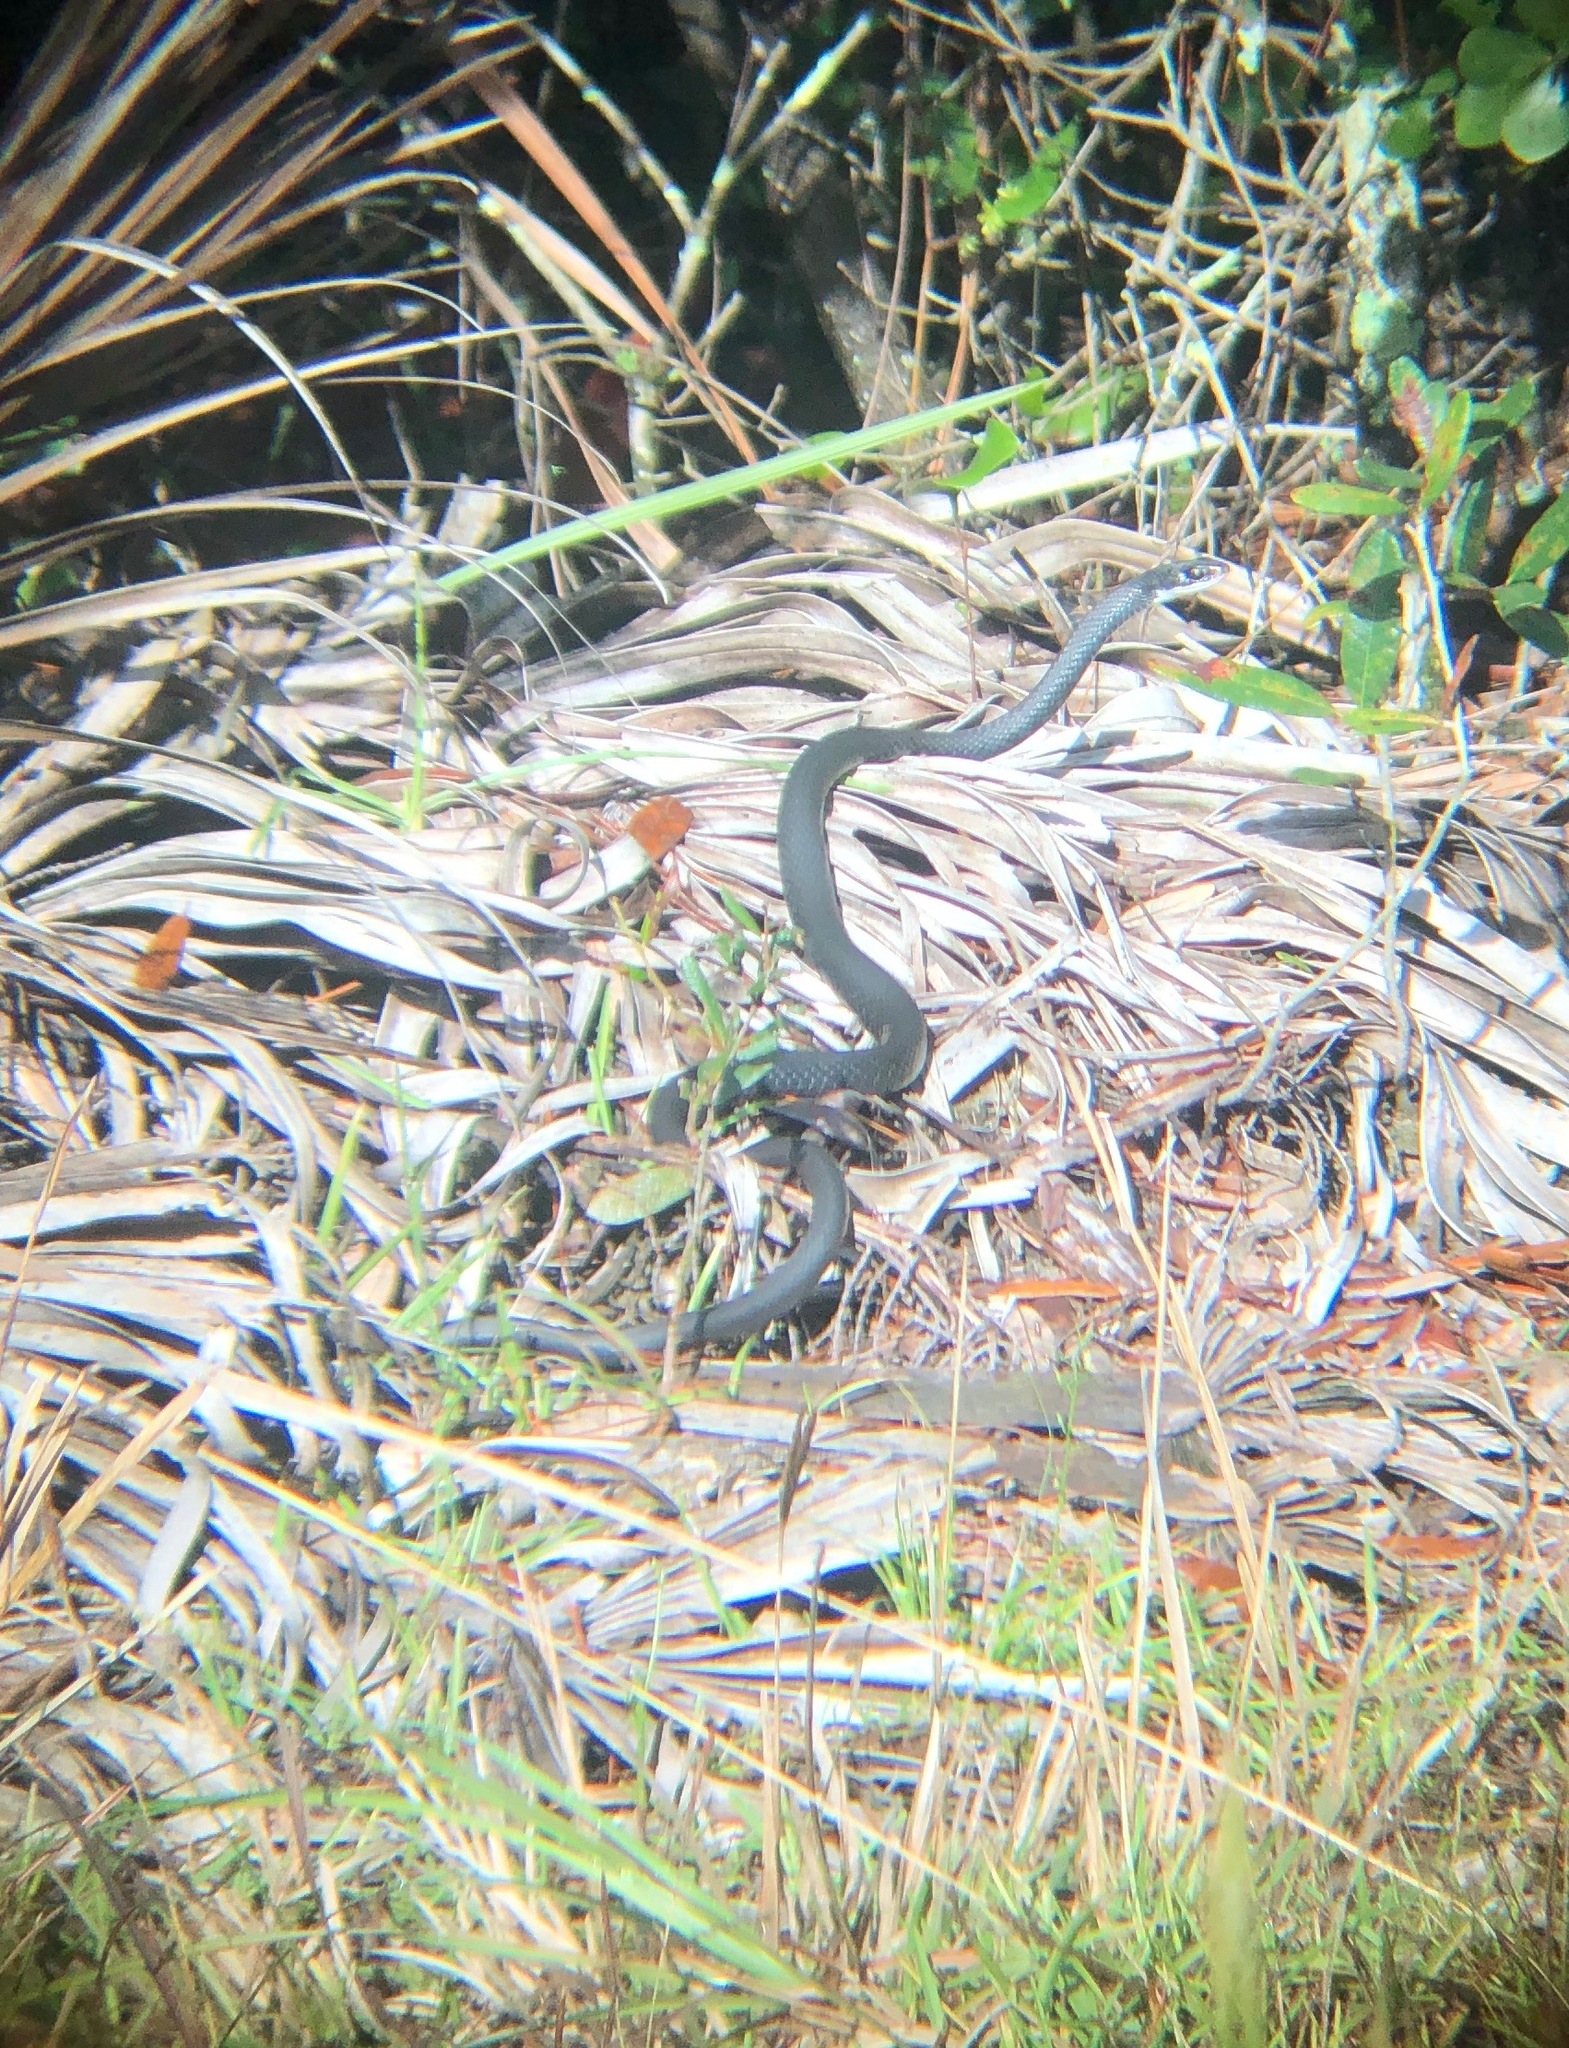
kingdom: Animalia
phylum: Chordata
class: Squamata
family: Colubridae
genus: Coluber
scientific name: Coluber constrictor
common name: Eastern racer
